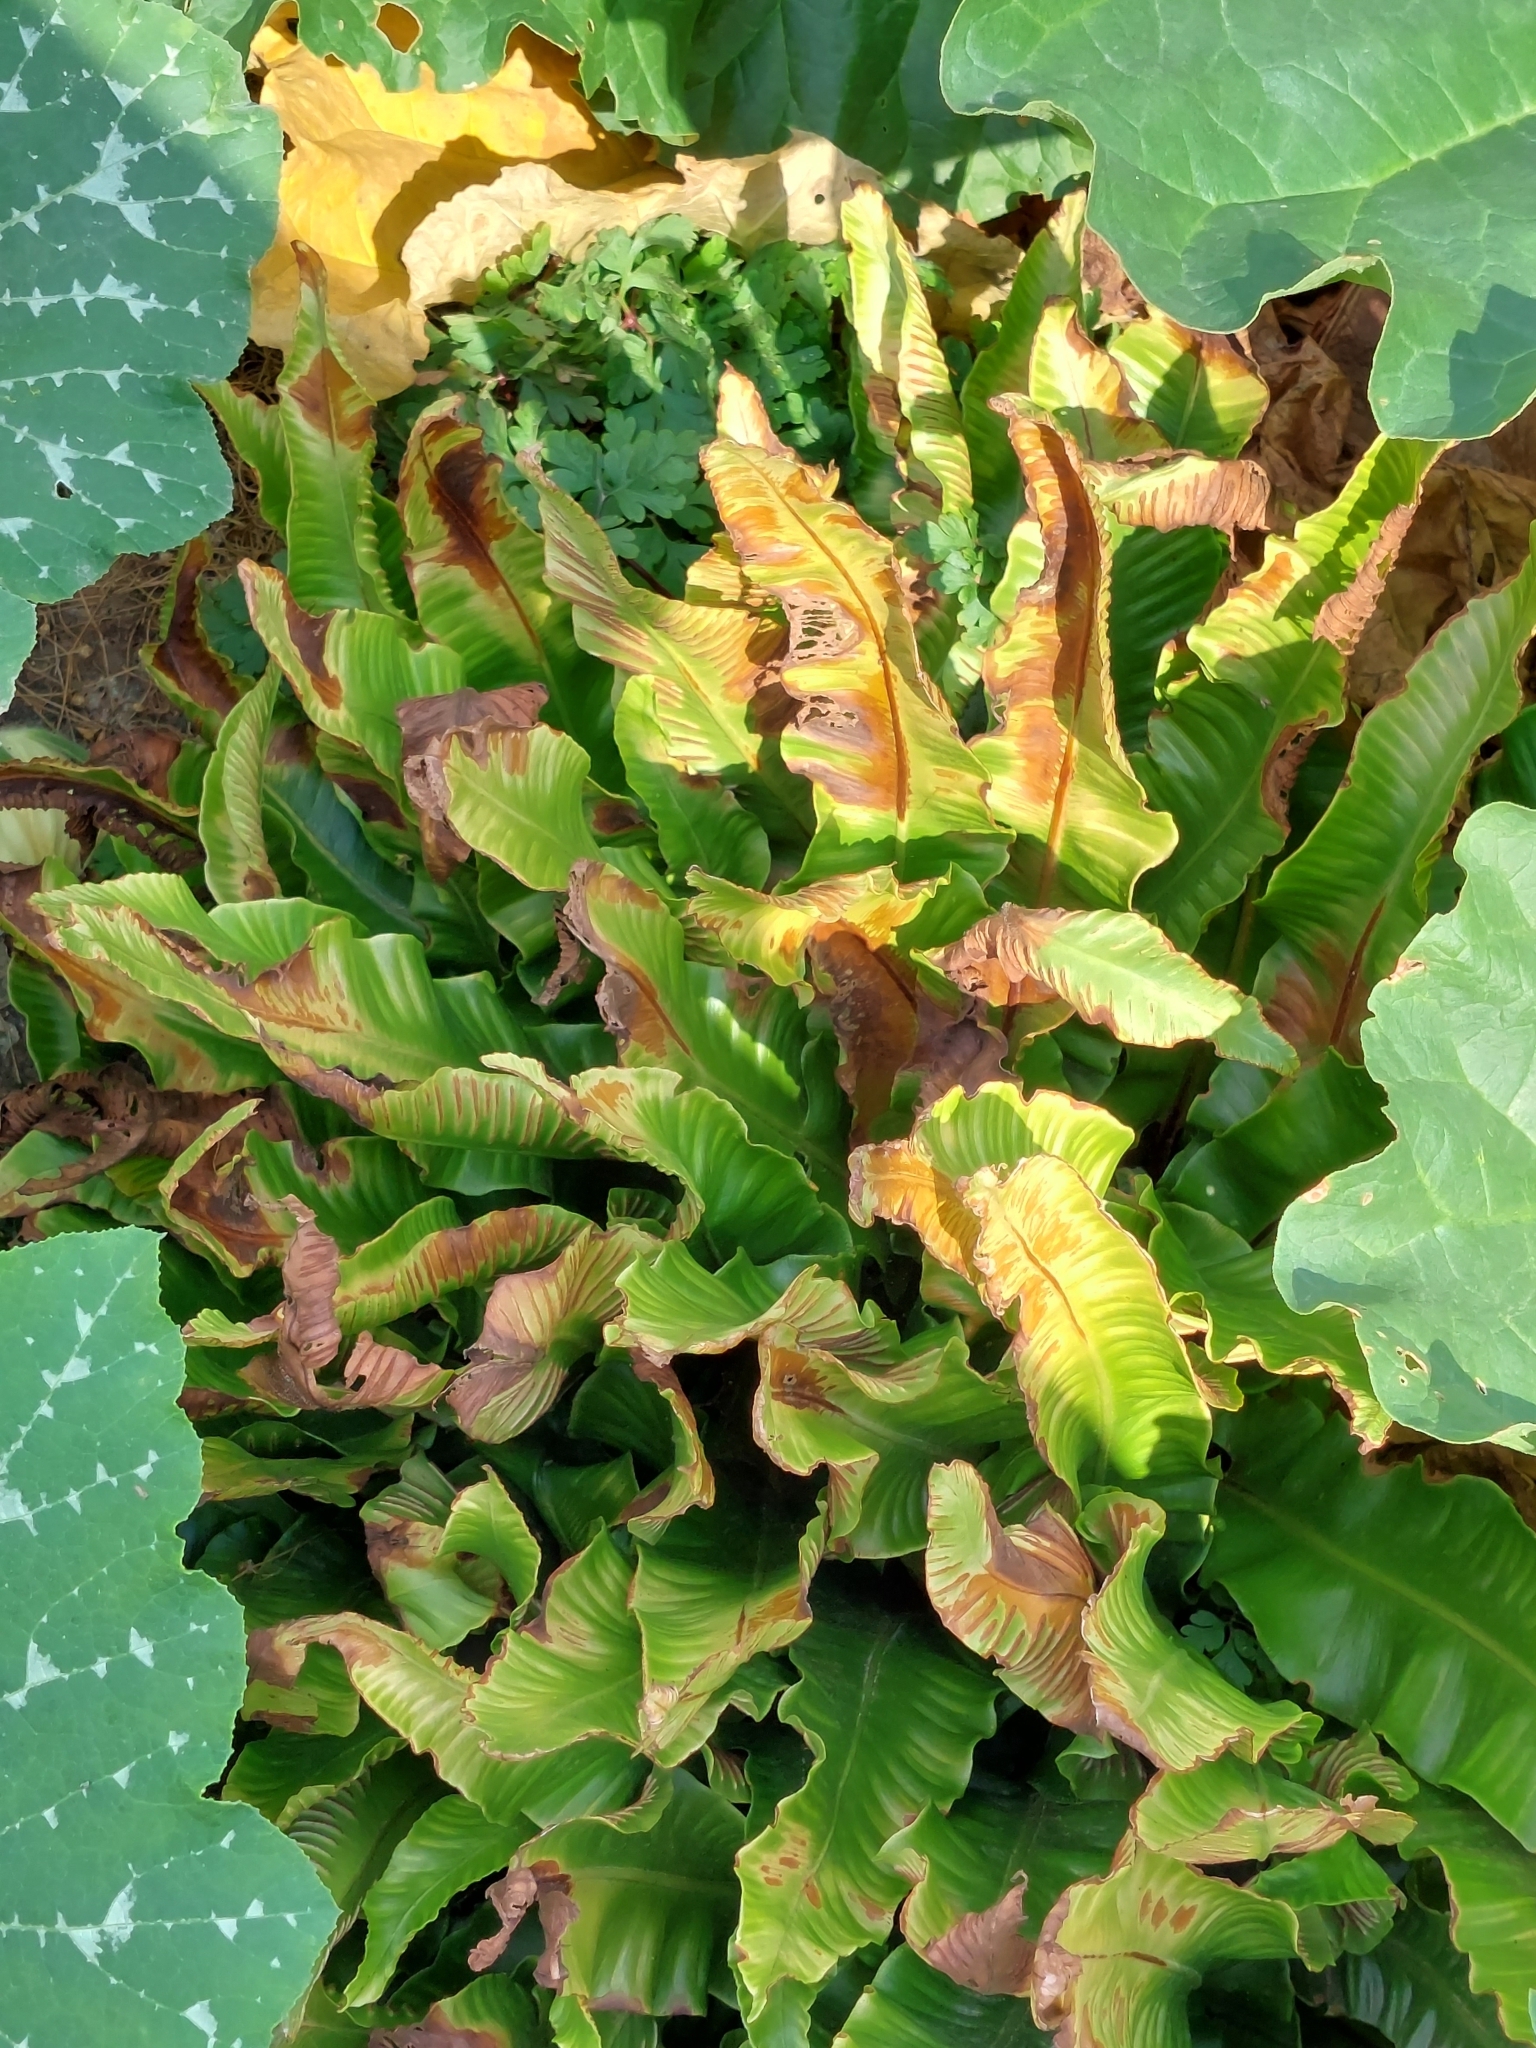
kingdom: Plantae
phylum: Tracheophyta
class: Polypodiopsida
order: Polypodiales
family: Aspleniaceae
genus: Asplenium
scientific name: Asplenium scolopendrium
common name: Hart's-tongue fern
